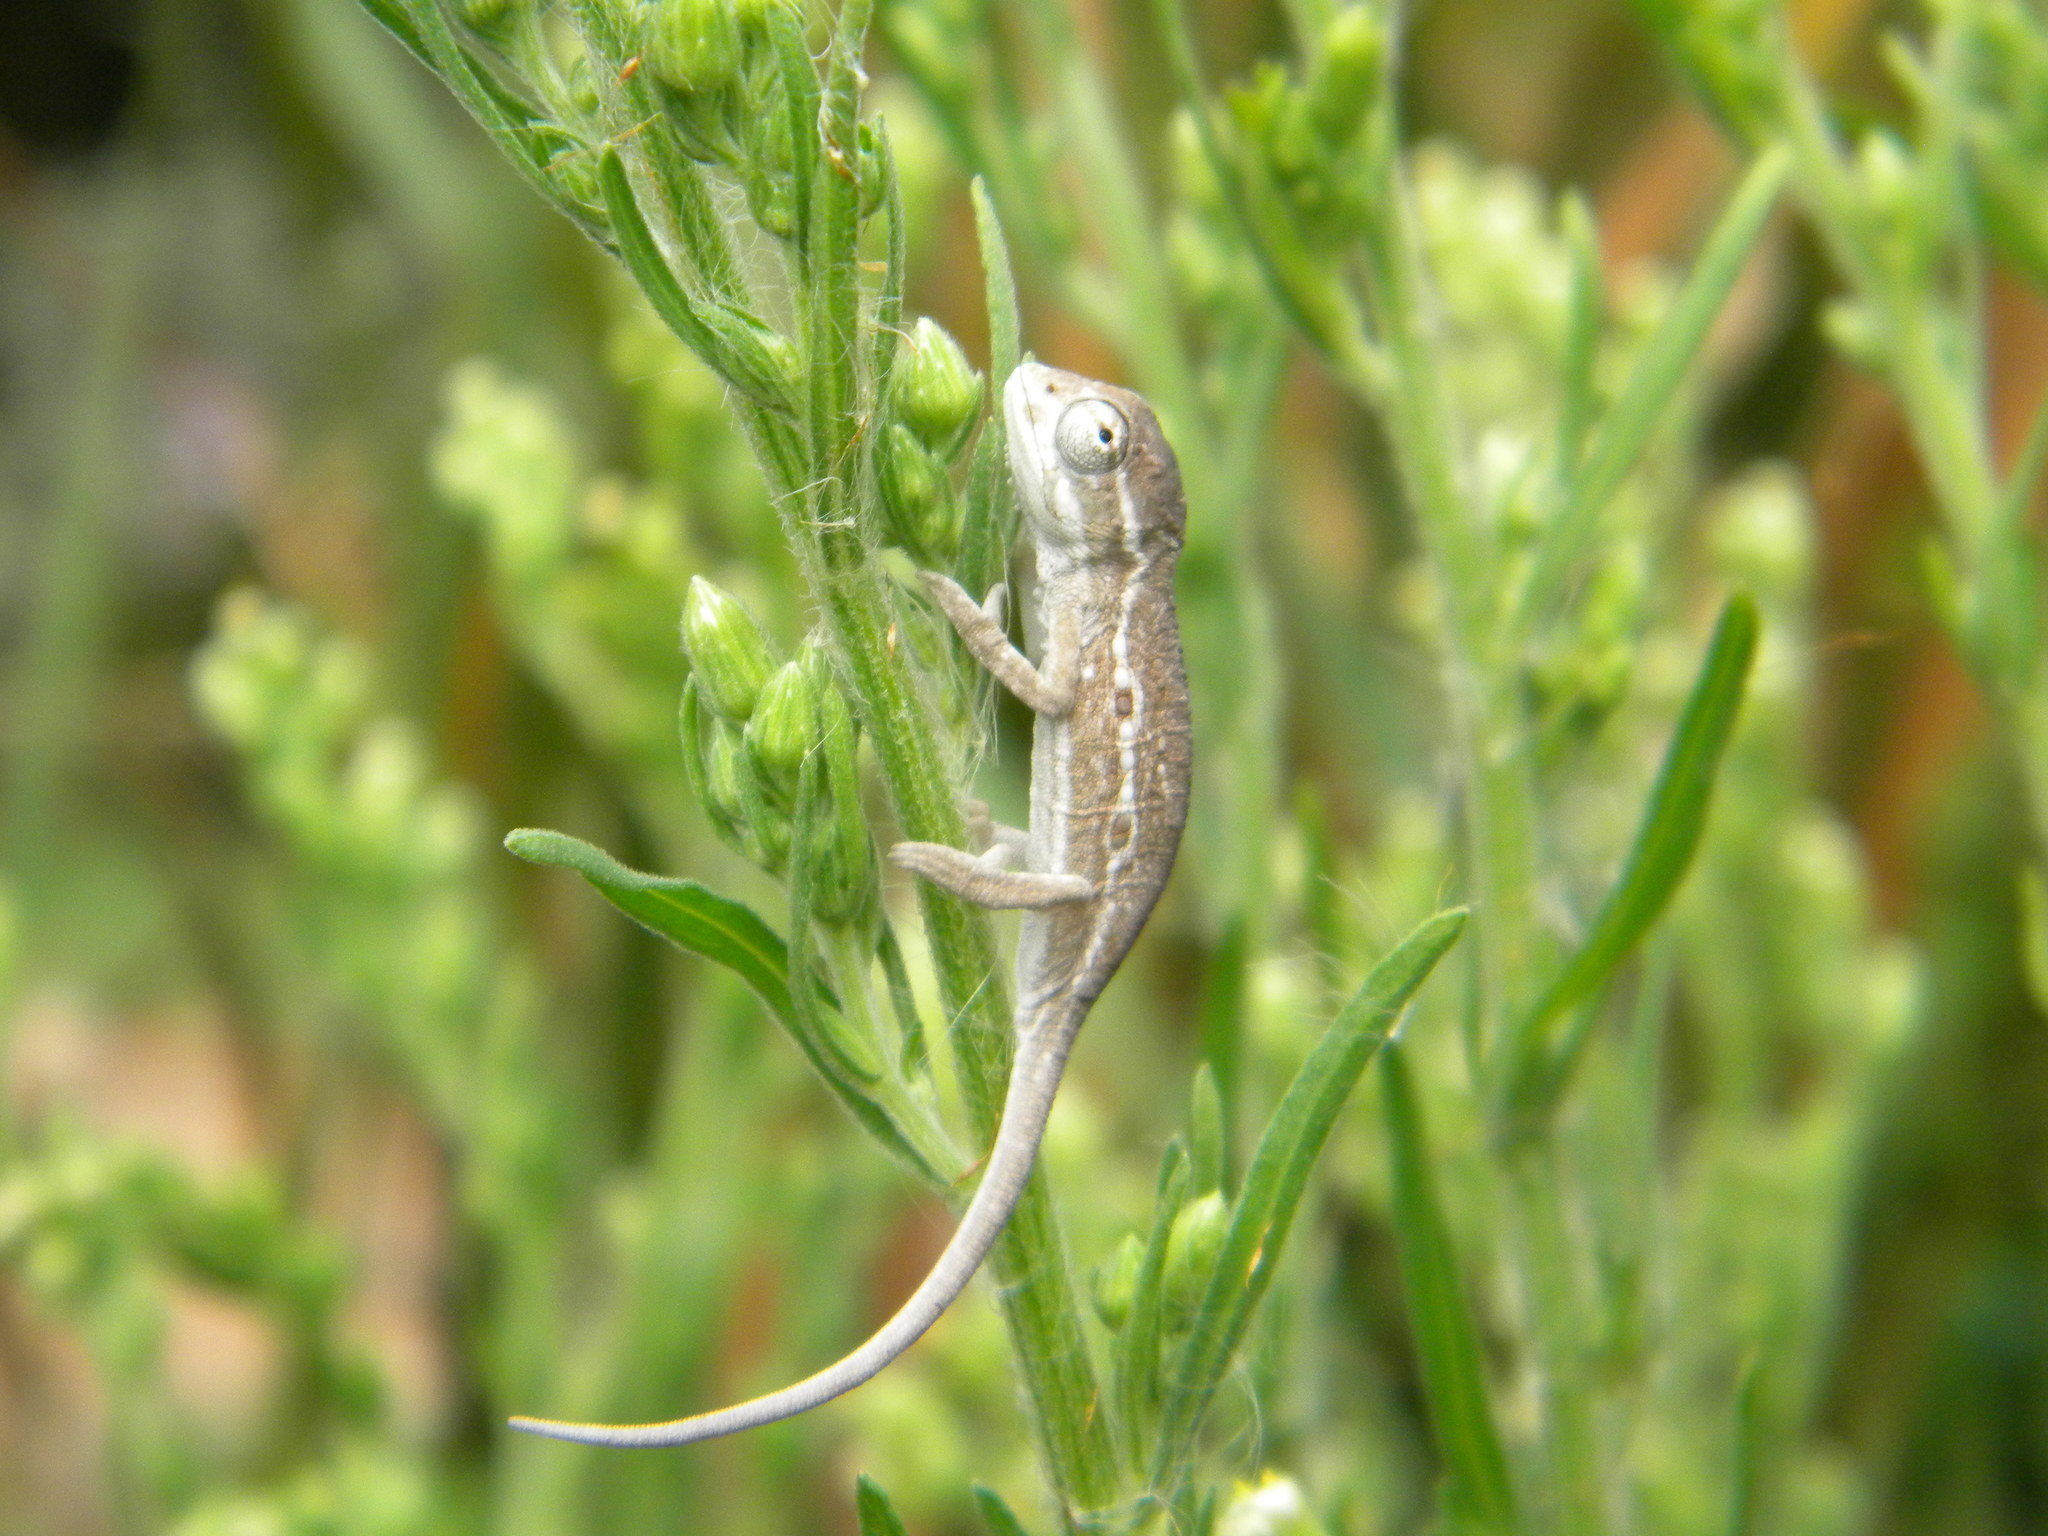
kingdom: Animalia
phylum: Chordata
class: Squamata
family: Chamaeleonidae
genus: Bradypodion
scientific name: Bradypodion pumilum
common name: Cape dwarf chameleon
